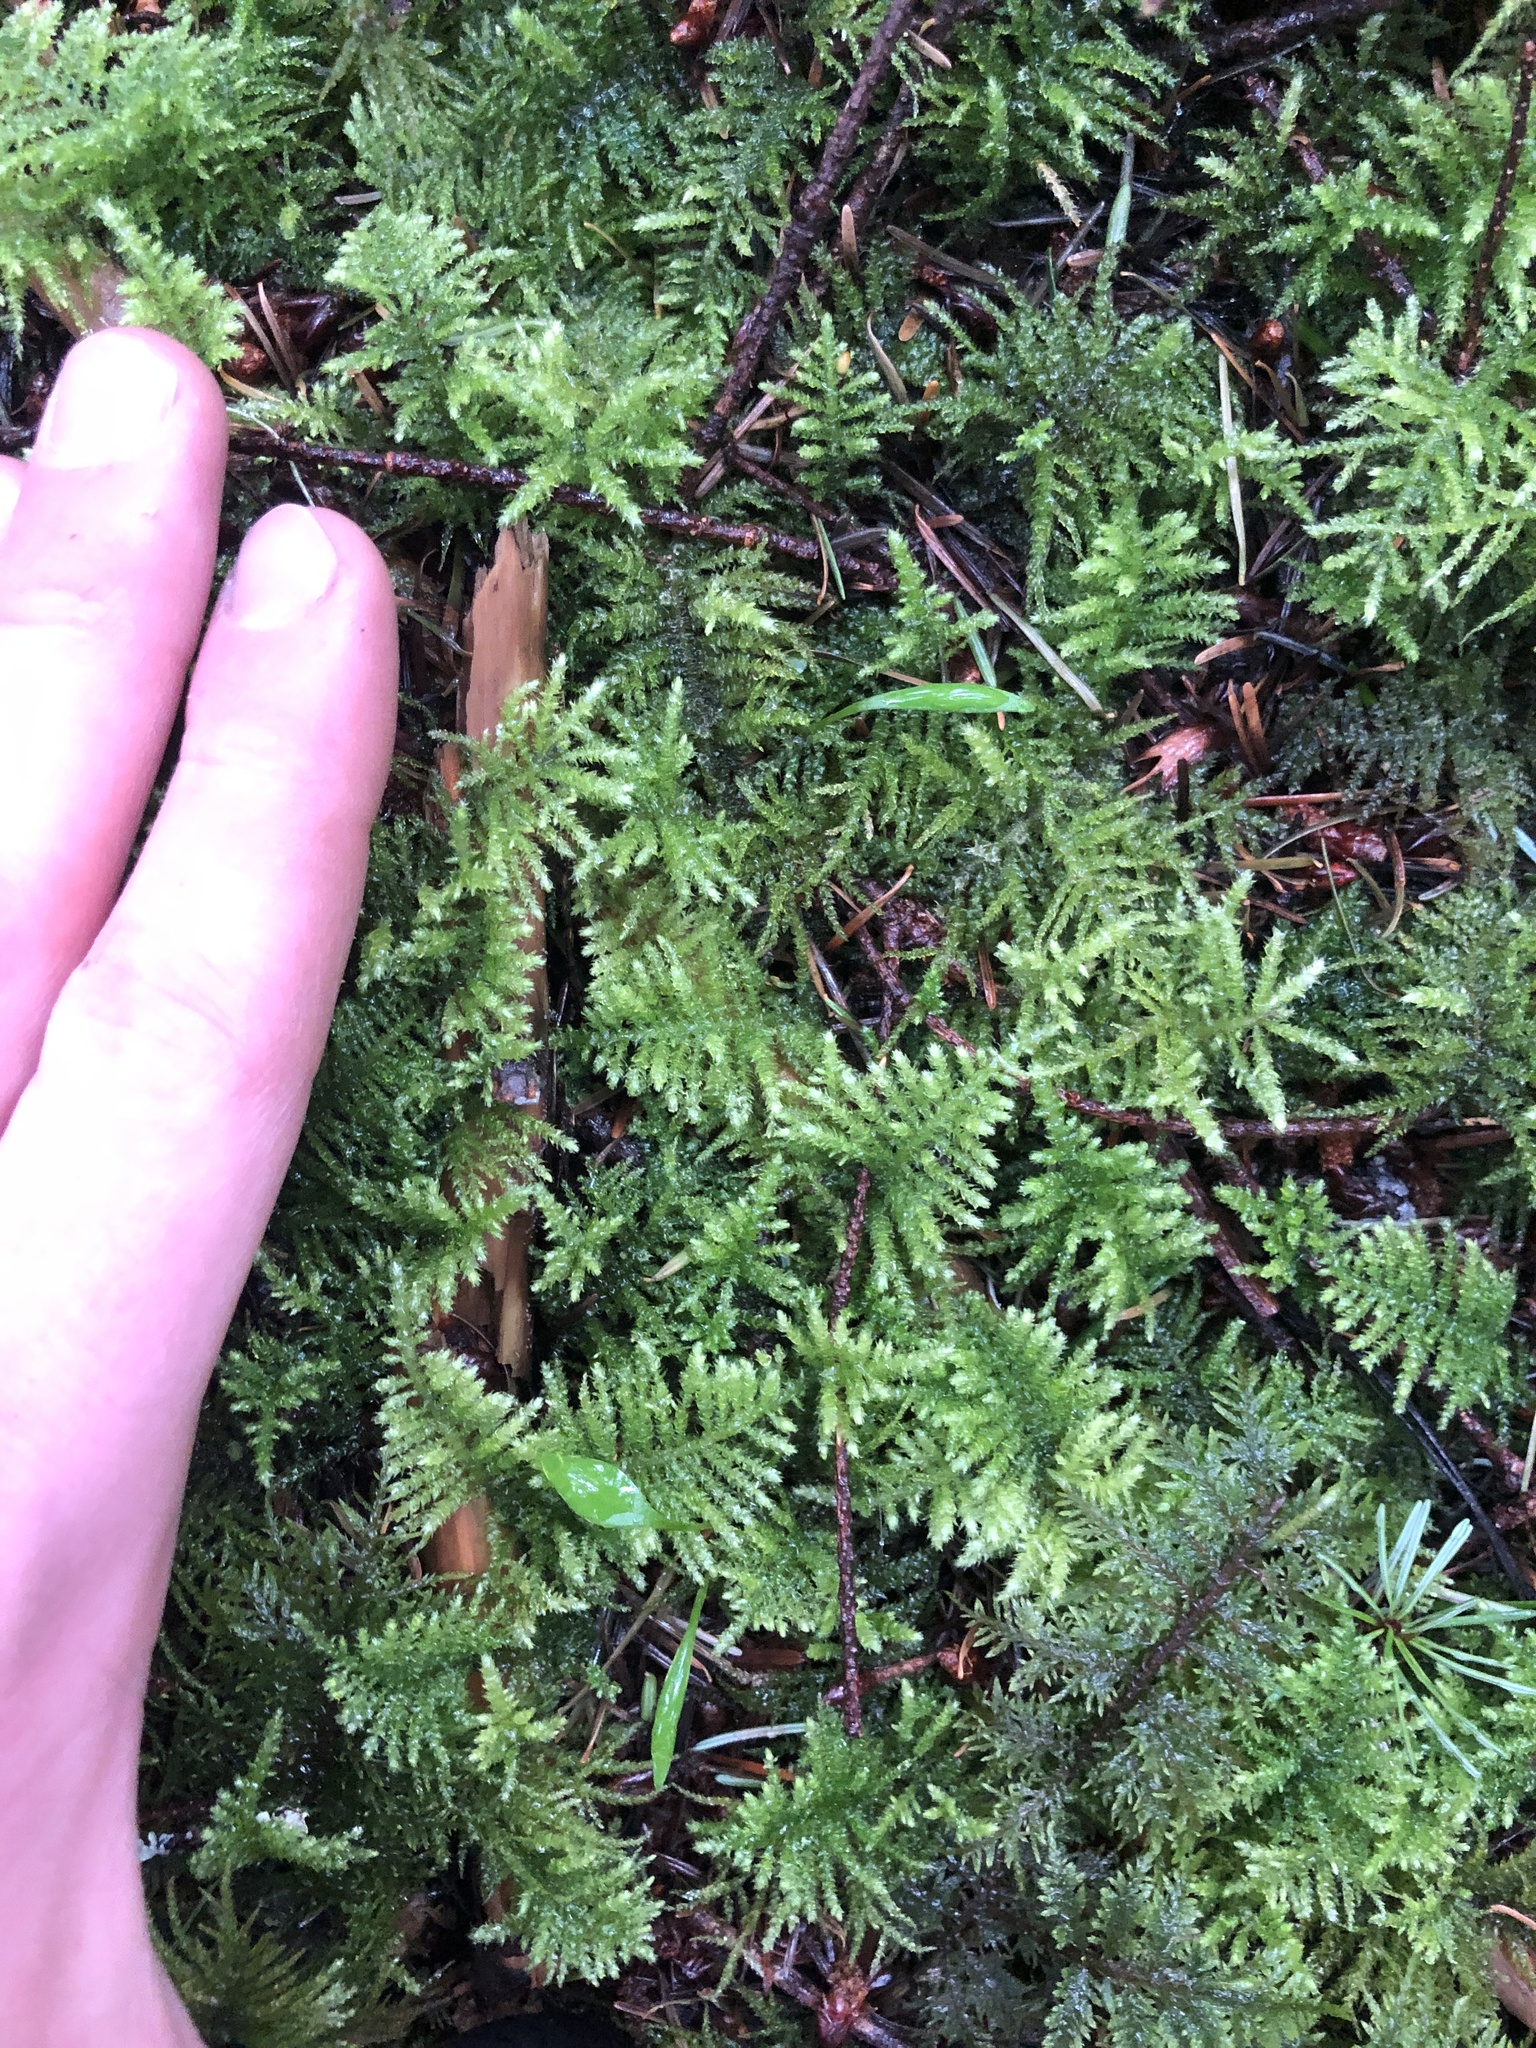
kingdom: Plantae
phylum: Bryophyta
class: Bryopsida
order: Hypnales
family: Brachytheciaceae
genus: Kindbergia
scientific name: Kindbergia oregana
